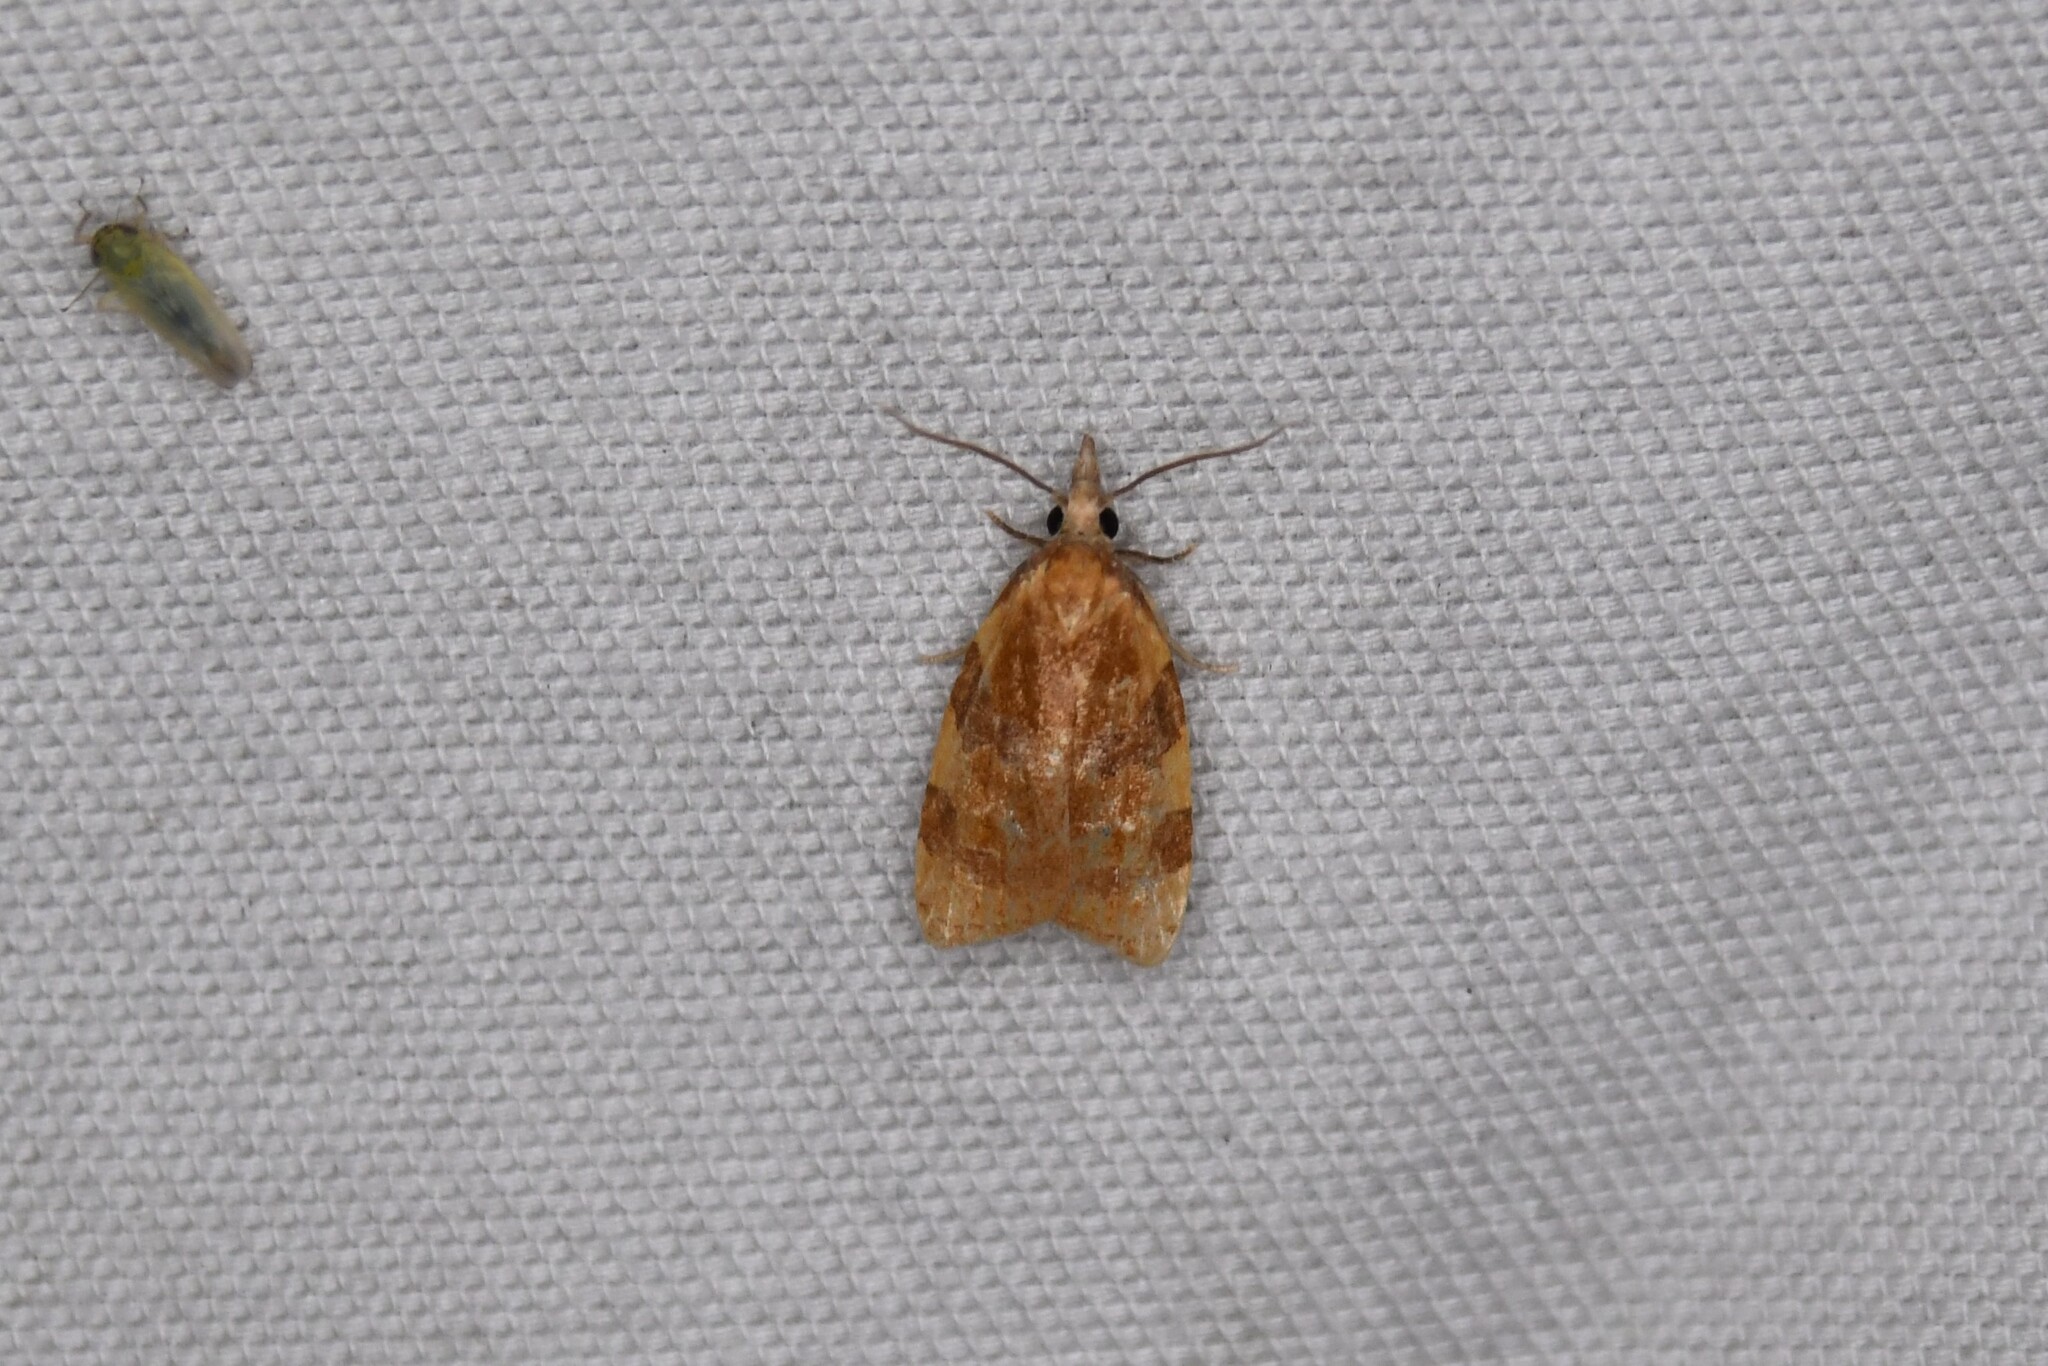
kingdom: Animalia
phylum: Arthropoda
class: Insecta
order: Lepidoptera
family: Tortricidae
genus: Cenopis
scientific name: Cenopis diluticostana
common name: Spring dead-leaf roller moth
